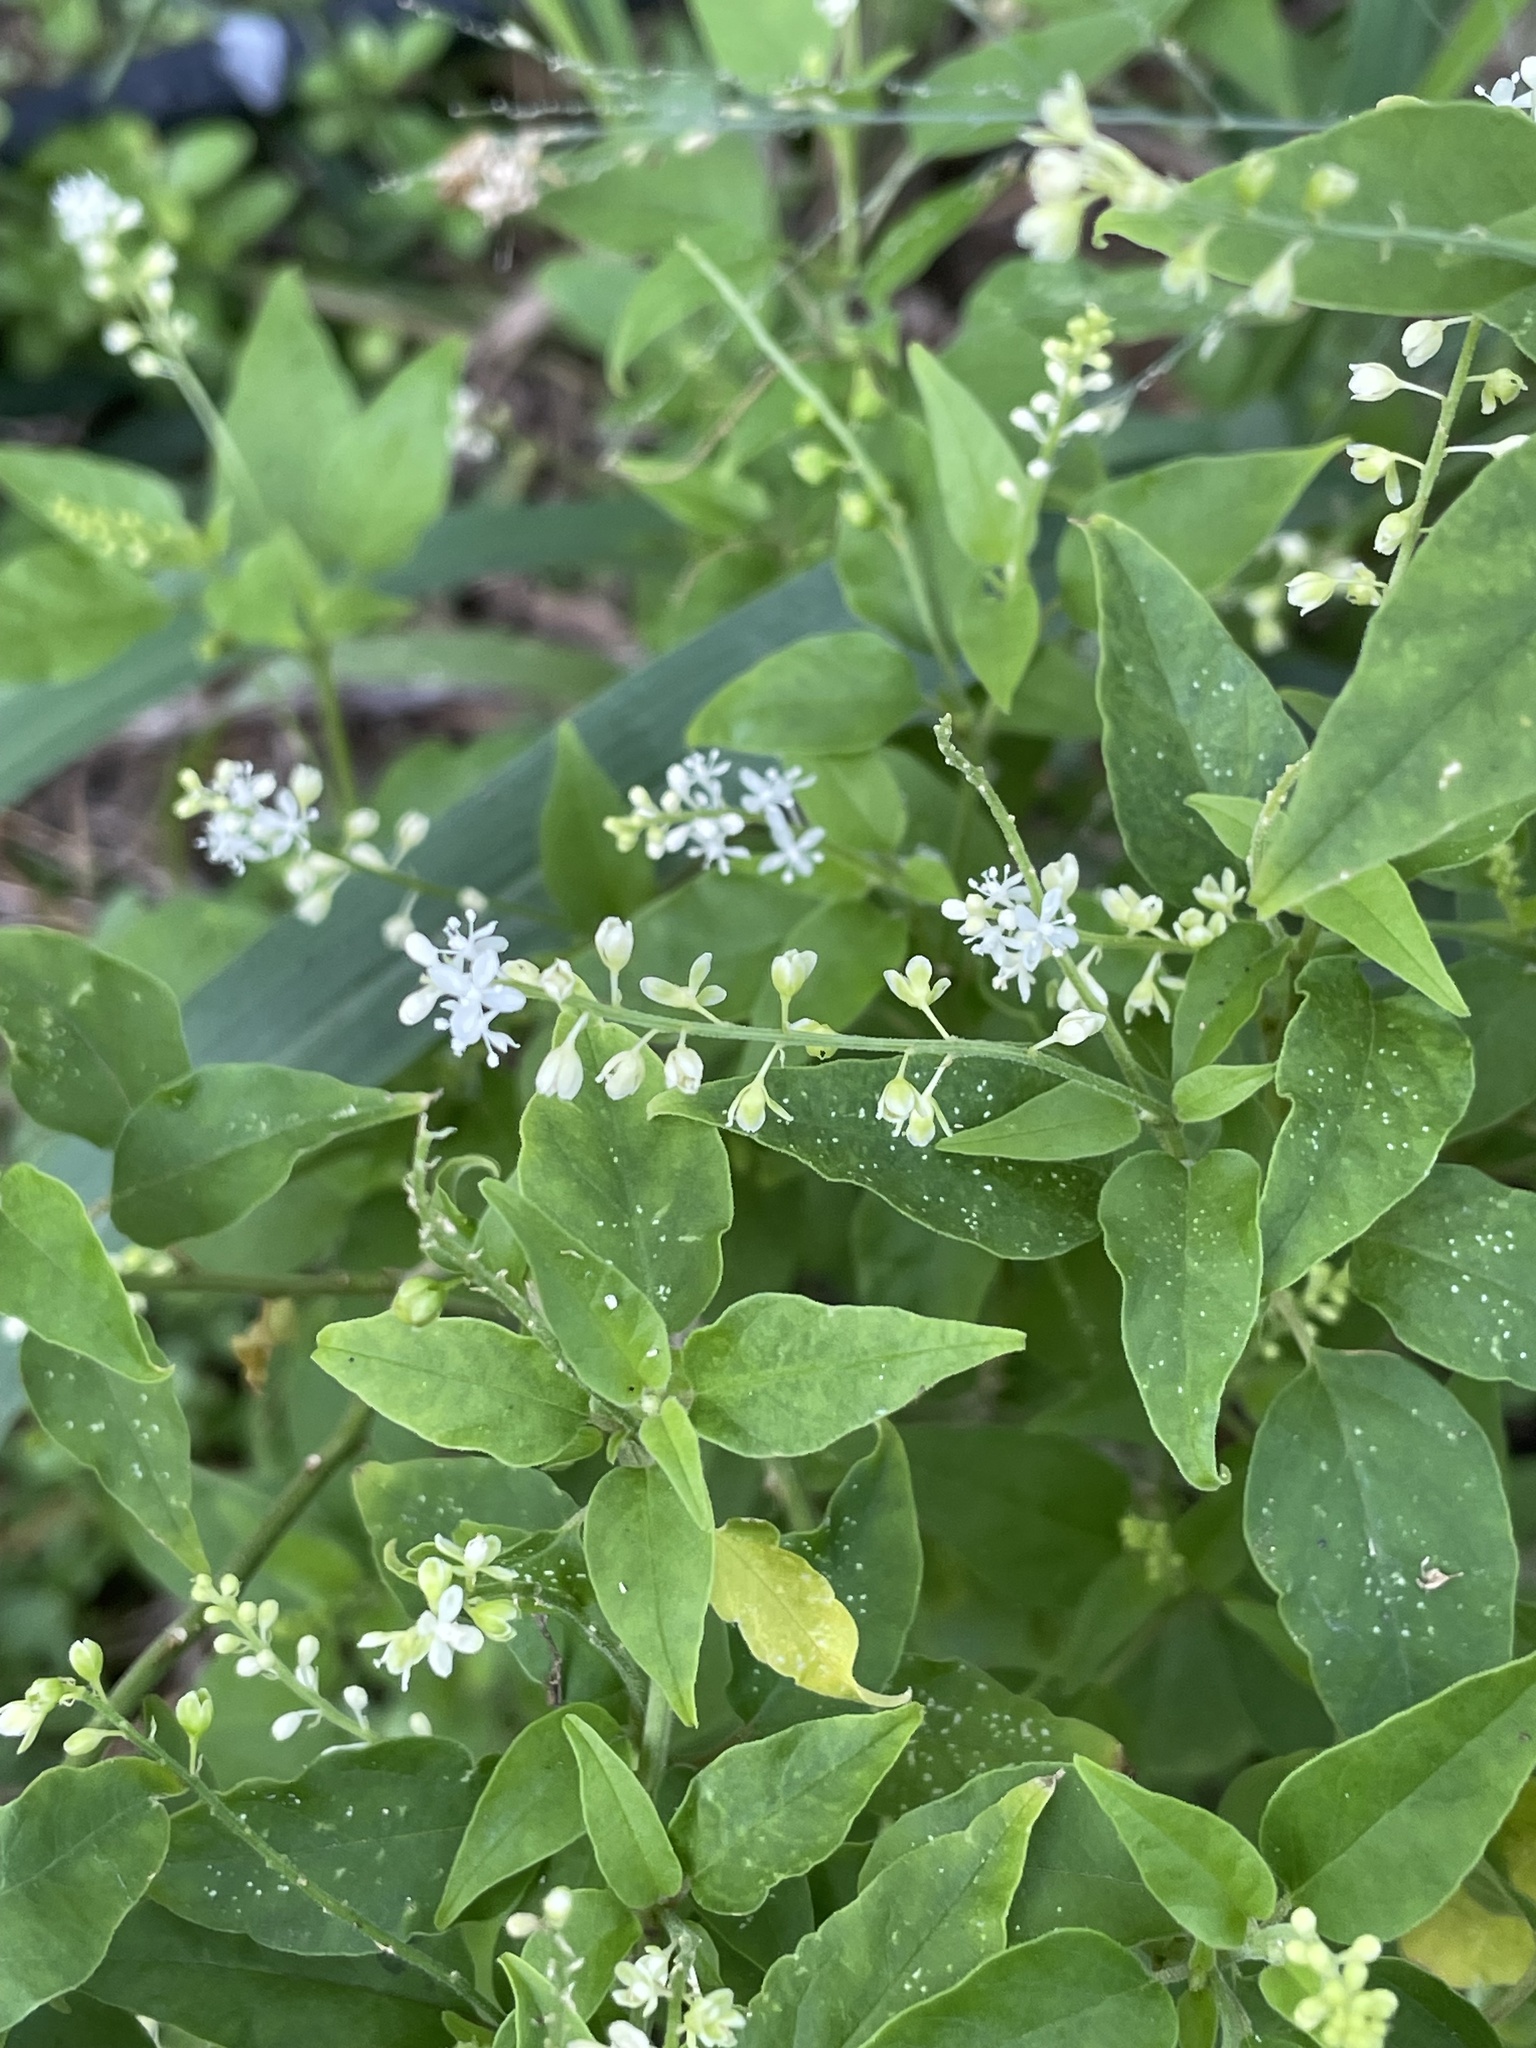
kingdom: Plantae
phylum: Tracheophyta
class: Magnoliopsida
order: Caryophyllales
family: Phytolaccaceae
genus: Rivina
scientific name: Rivina humilis
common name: Rougeplant
